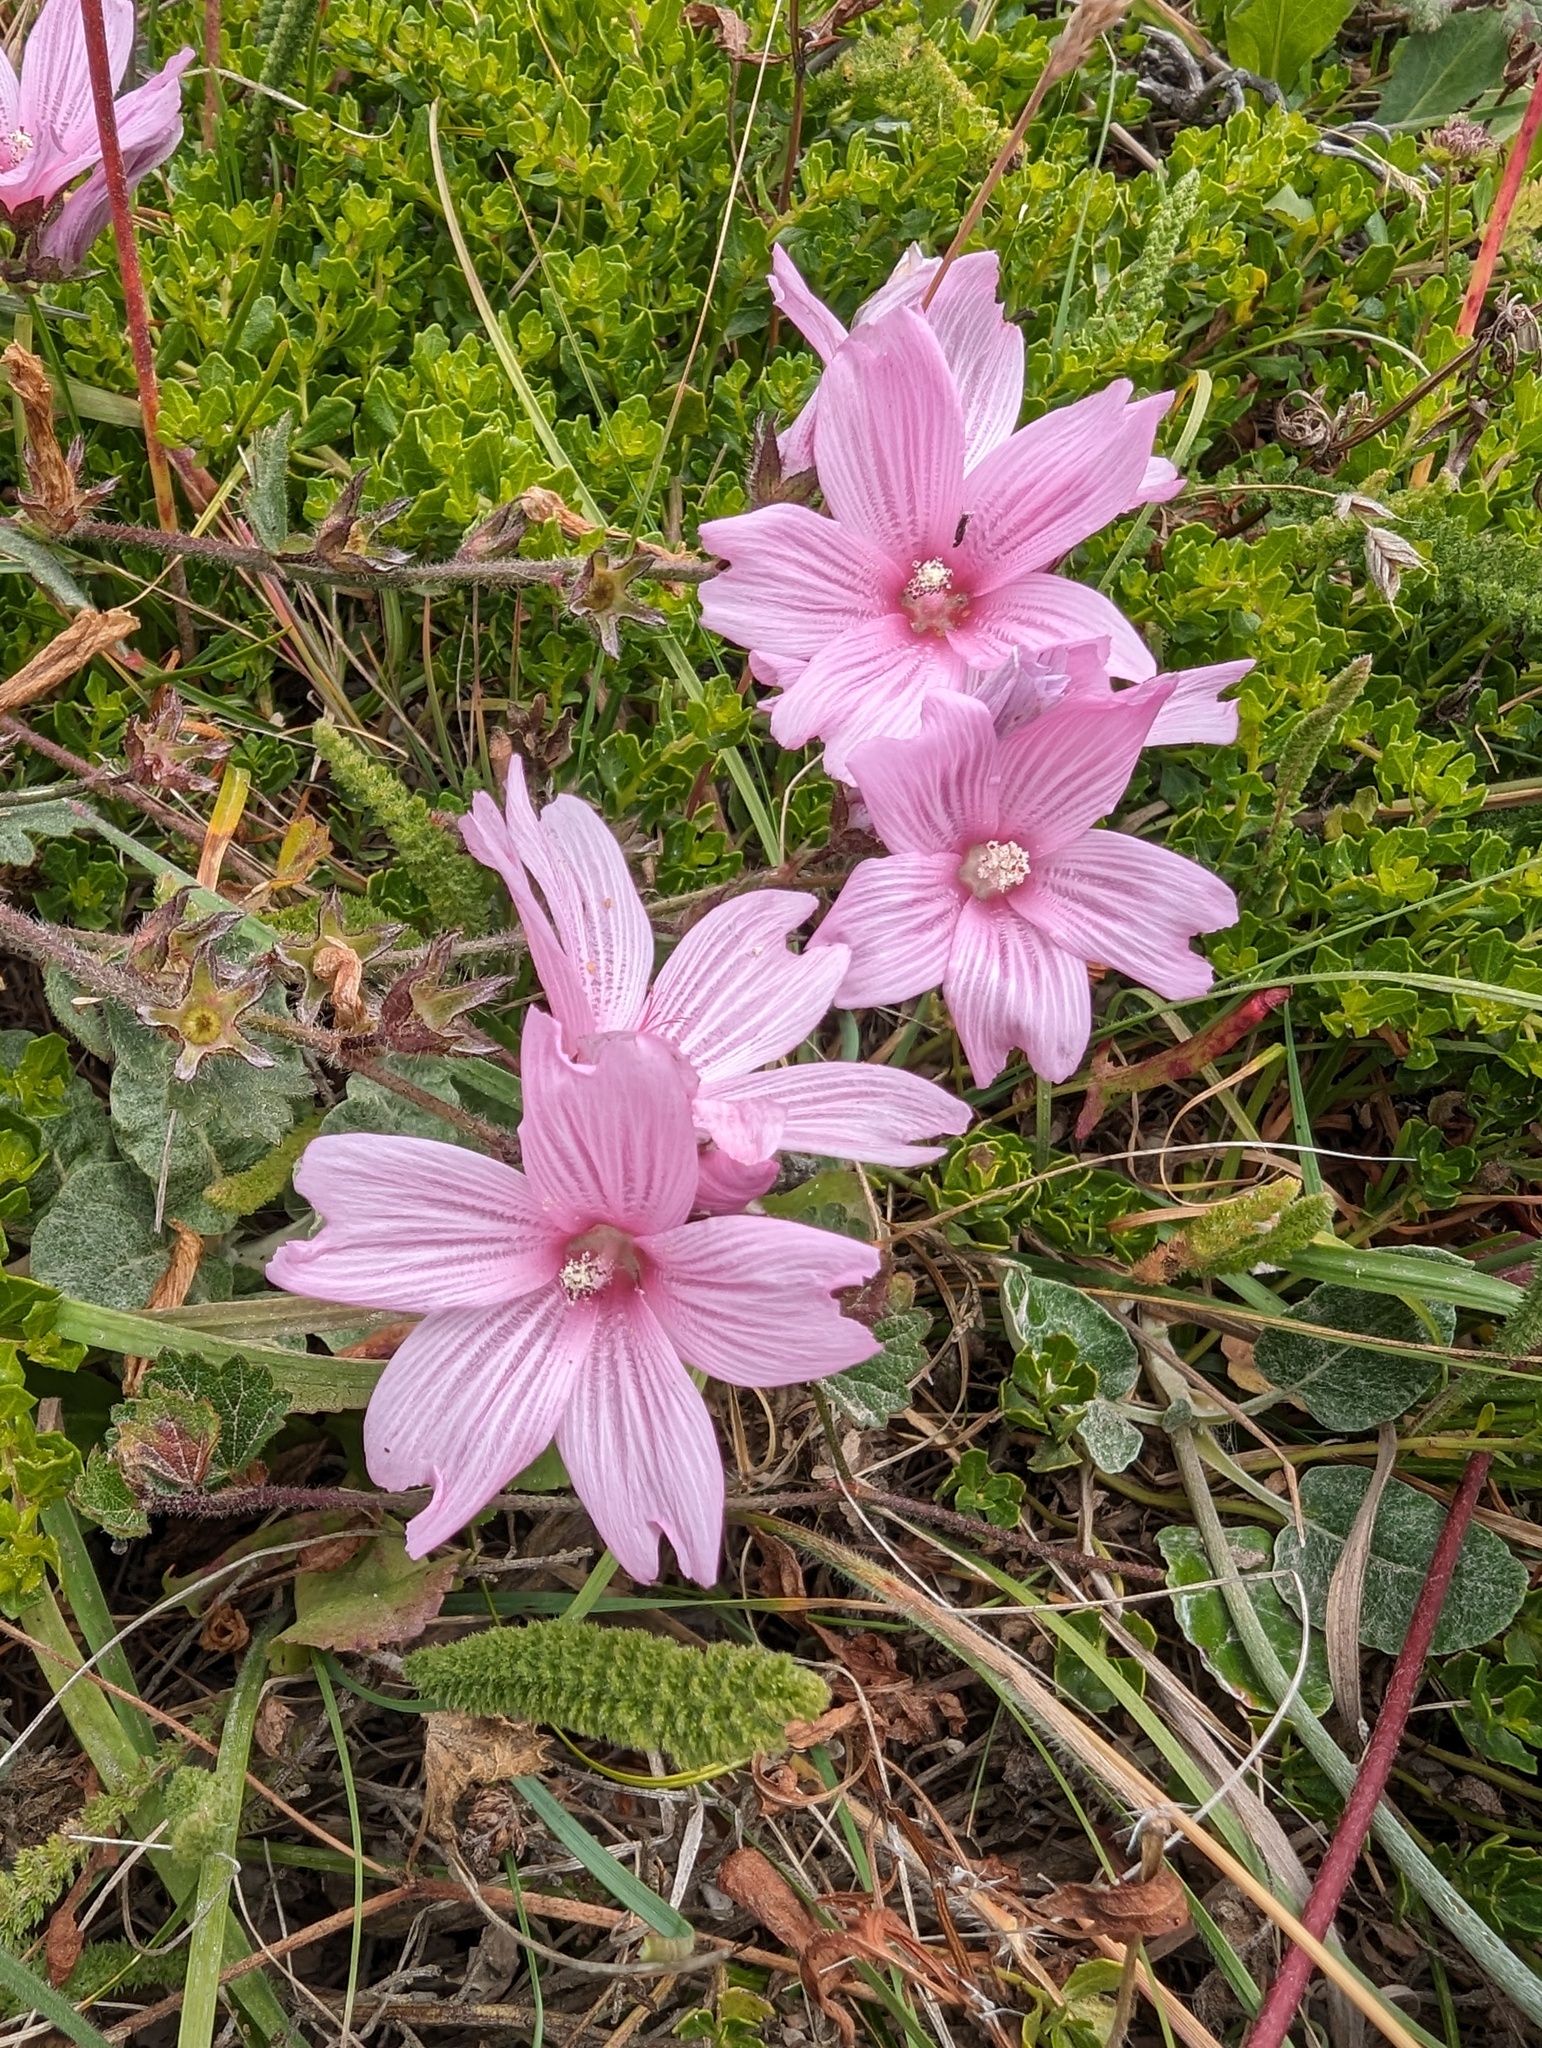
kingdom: Plantae
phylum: Tracheophyta
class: Magnoliopsida
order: Malvales
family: Malvaceae
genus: Sidalcea
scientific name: Sidalcea malviflora
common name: Greek mallow
